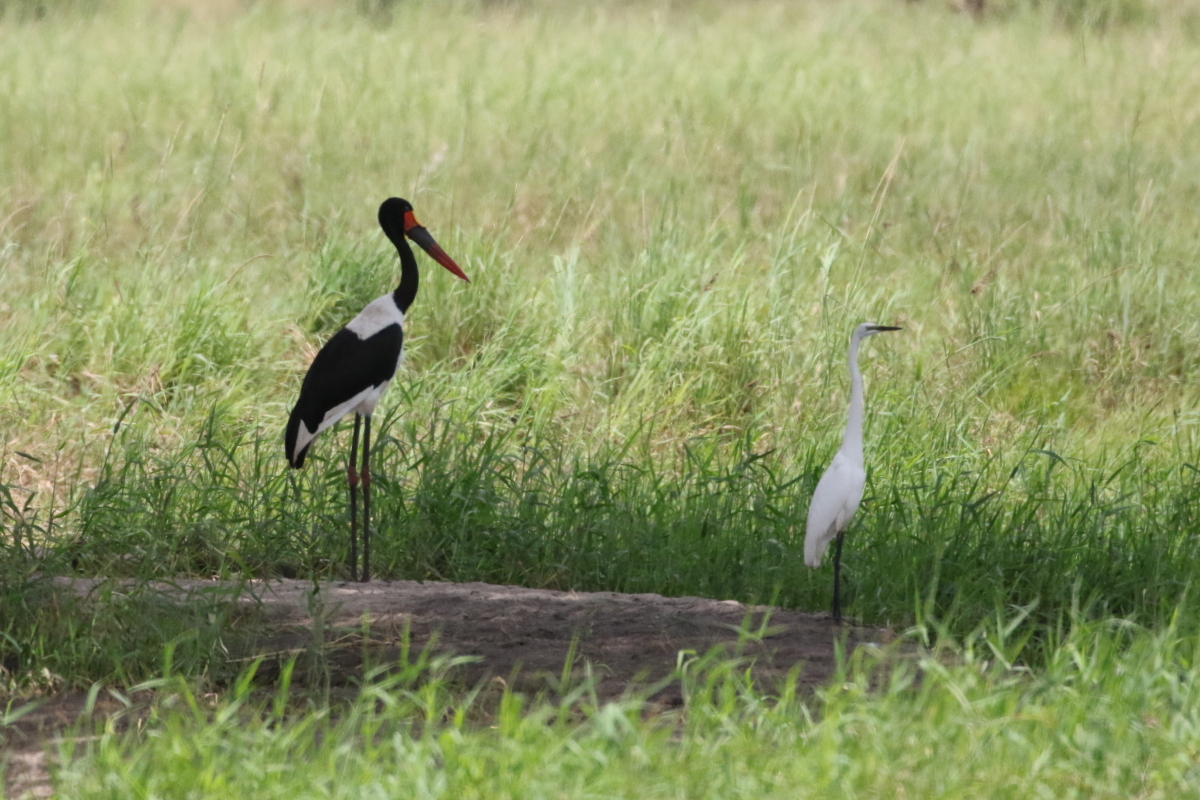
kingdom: Animalia
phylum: Chordata
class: Aves
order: Ciconiiformes
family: Ciconiidae
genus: Ephippiorhynchus
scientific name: Ephippiorhynchus senegalensis
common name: Saddle-billed stork
